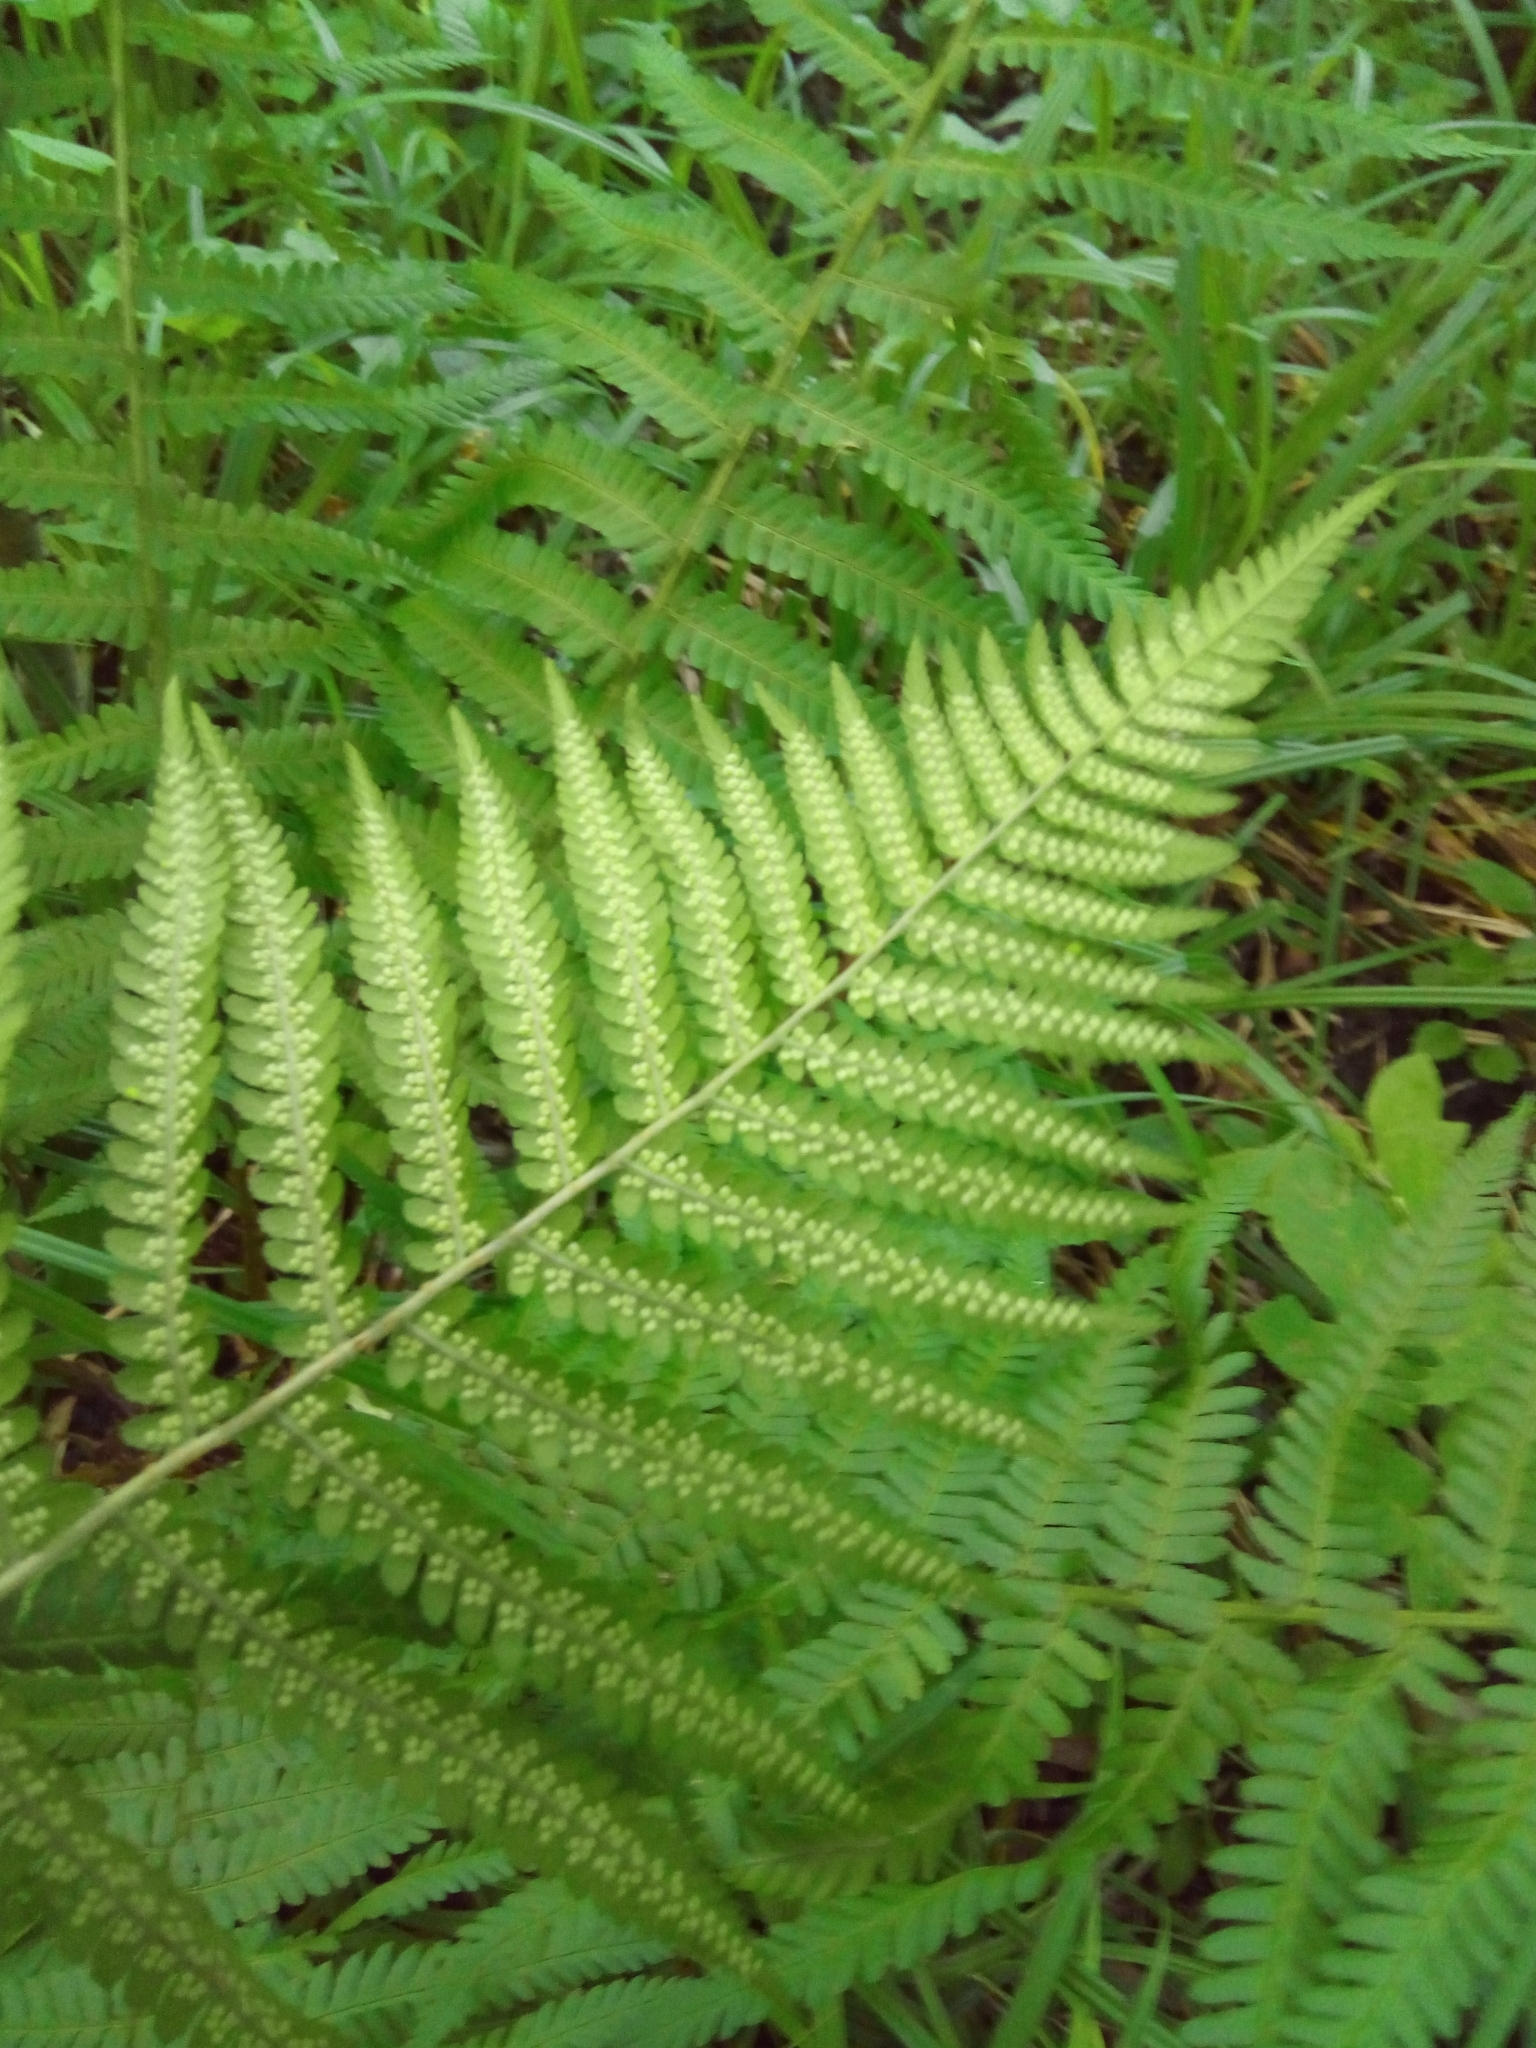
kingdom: Plantae
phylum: Tracheophyta
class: Polypodiopsida
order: Polypodiales
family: Dryopteridaceae
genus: Dryopteris
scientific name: Dryopteris filix-mas
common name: Male fern
